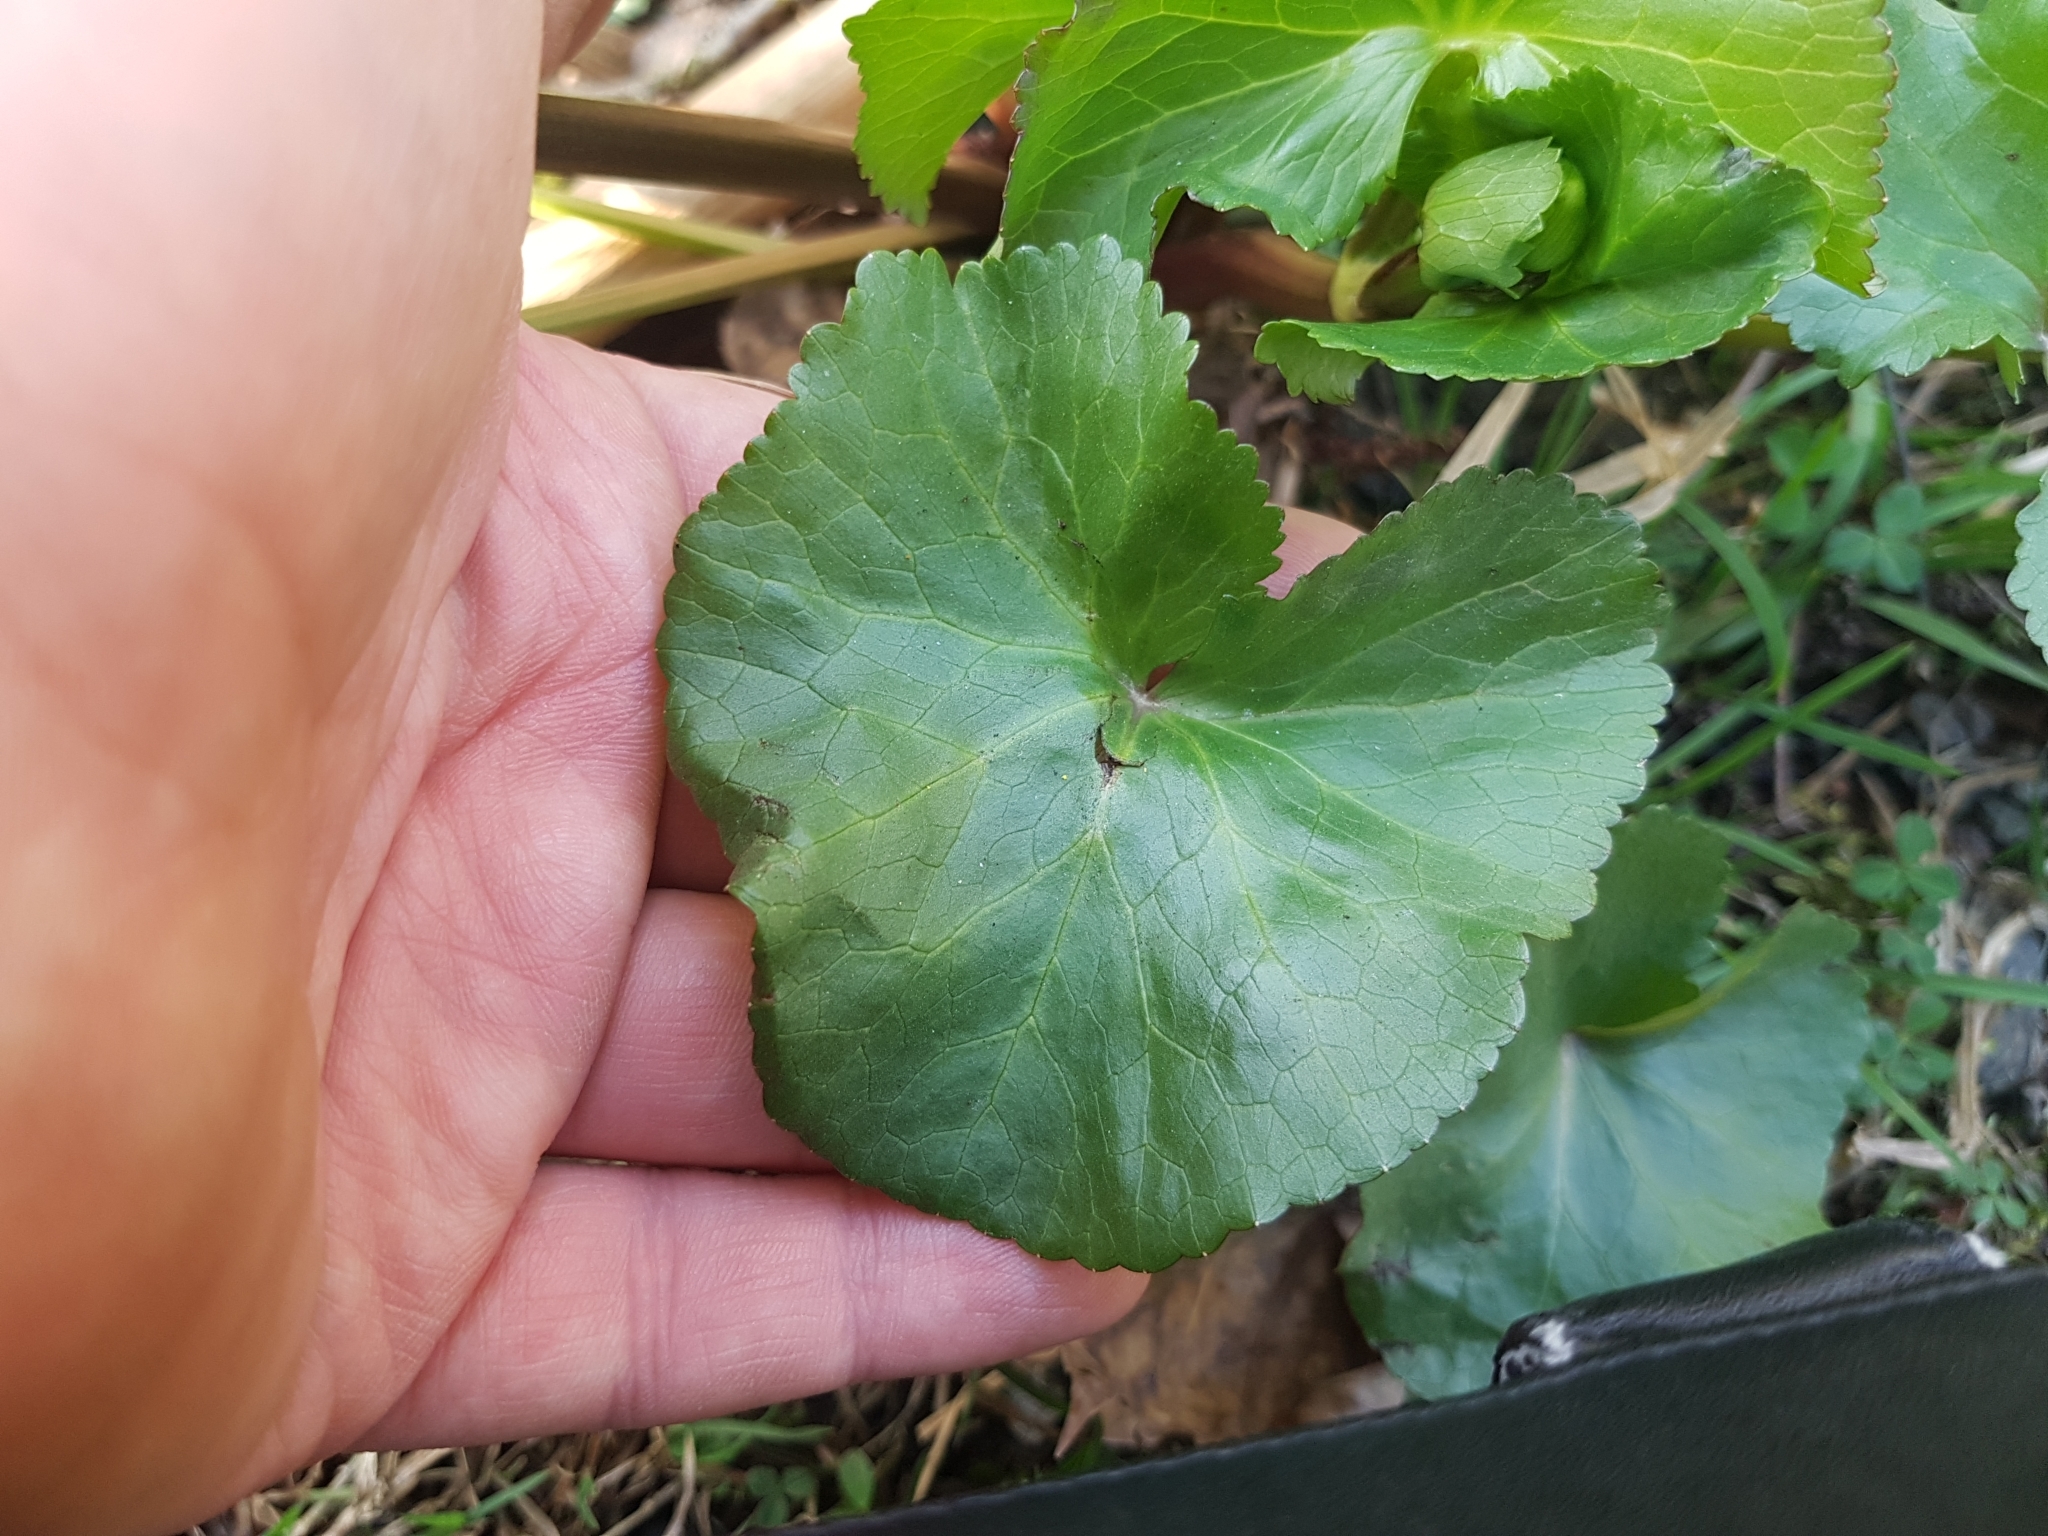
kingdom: Plantae
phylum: Tracheophyta
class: Magnoliopsida
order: Ranunculales
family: Ranunculaceae
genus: Caltha
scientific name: Caltha palustris
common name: Marsh marigold
